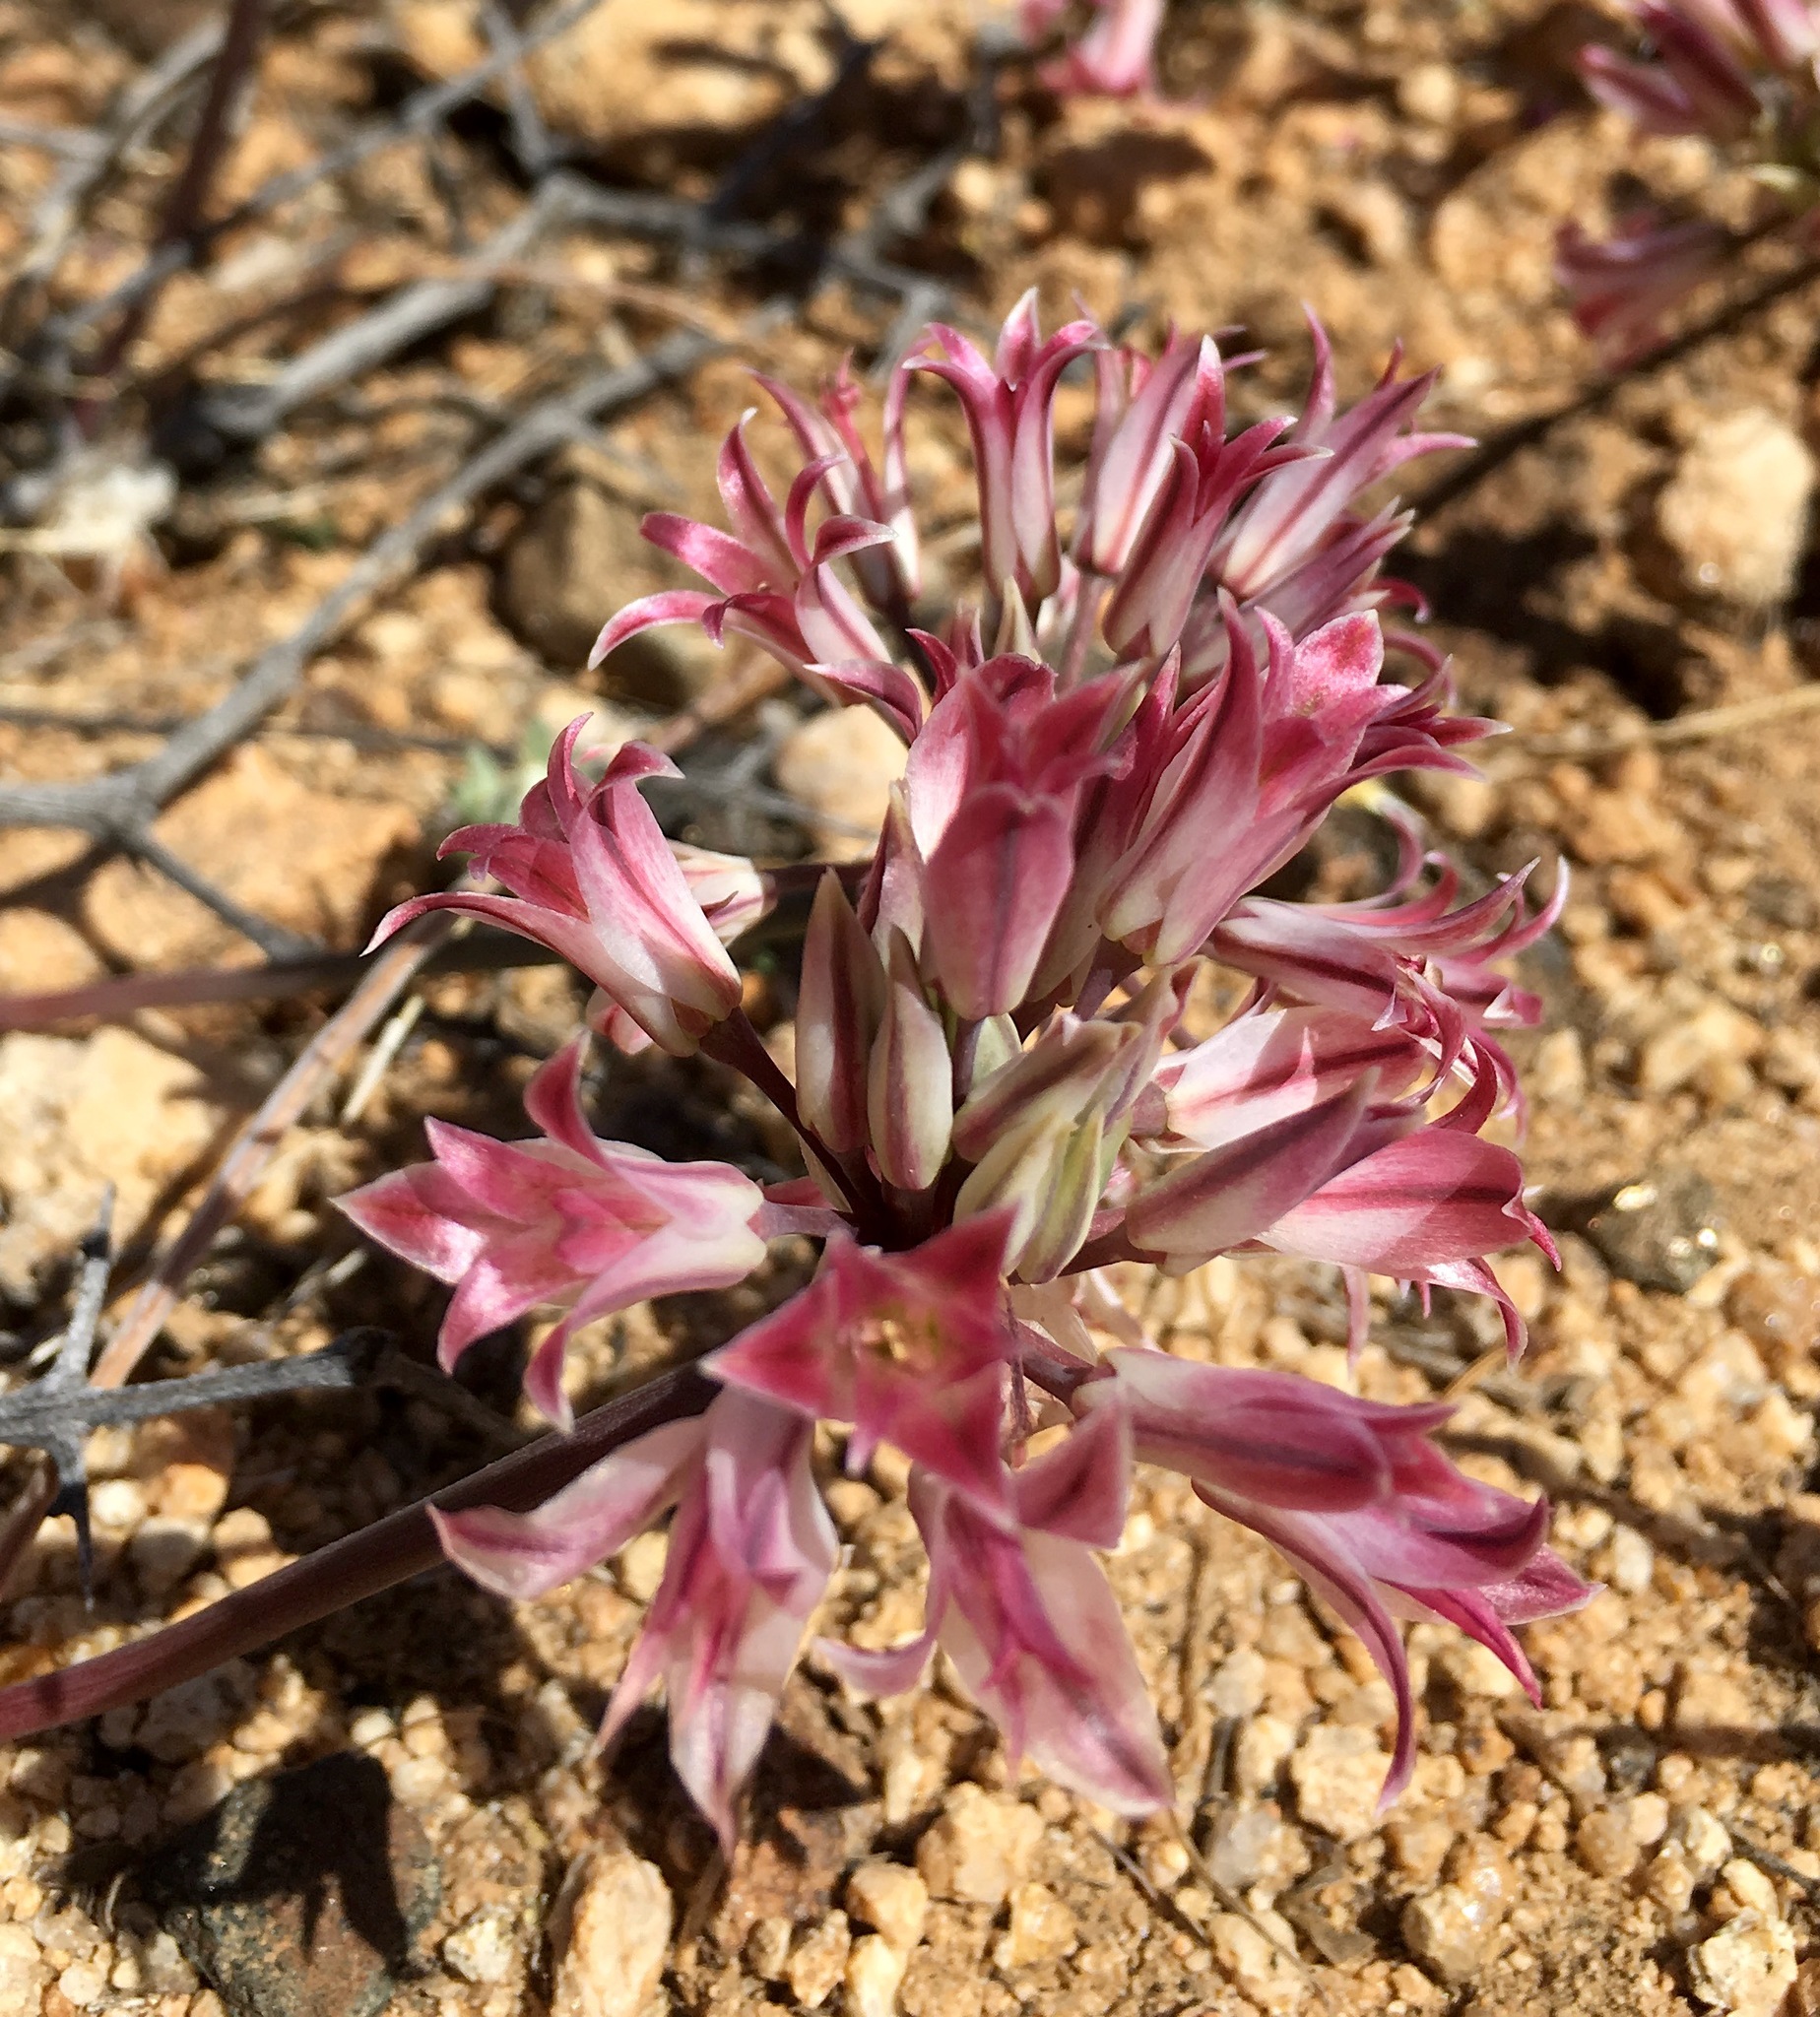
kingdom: Plantae
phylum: Tracheophyta
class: Liliopsida
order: Asparagales
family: Amaryllidaceae
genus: Allium
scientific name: Allium parishii
